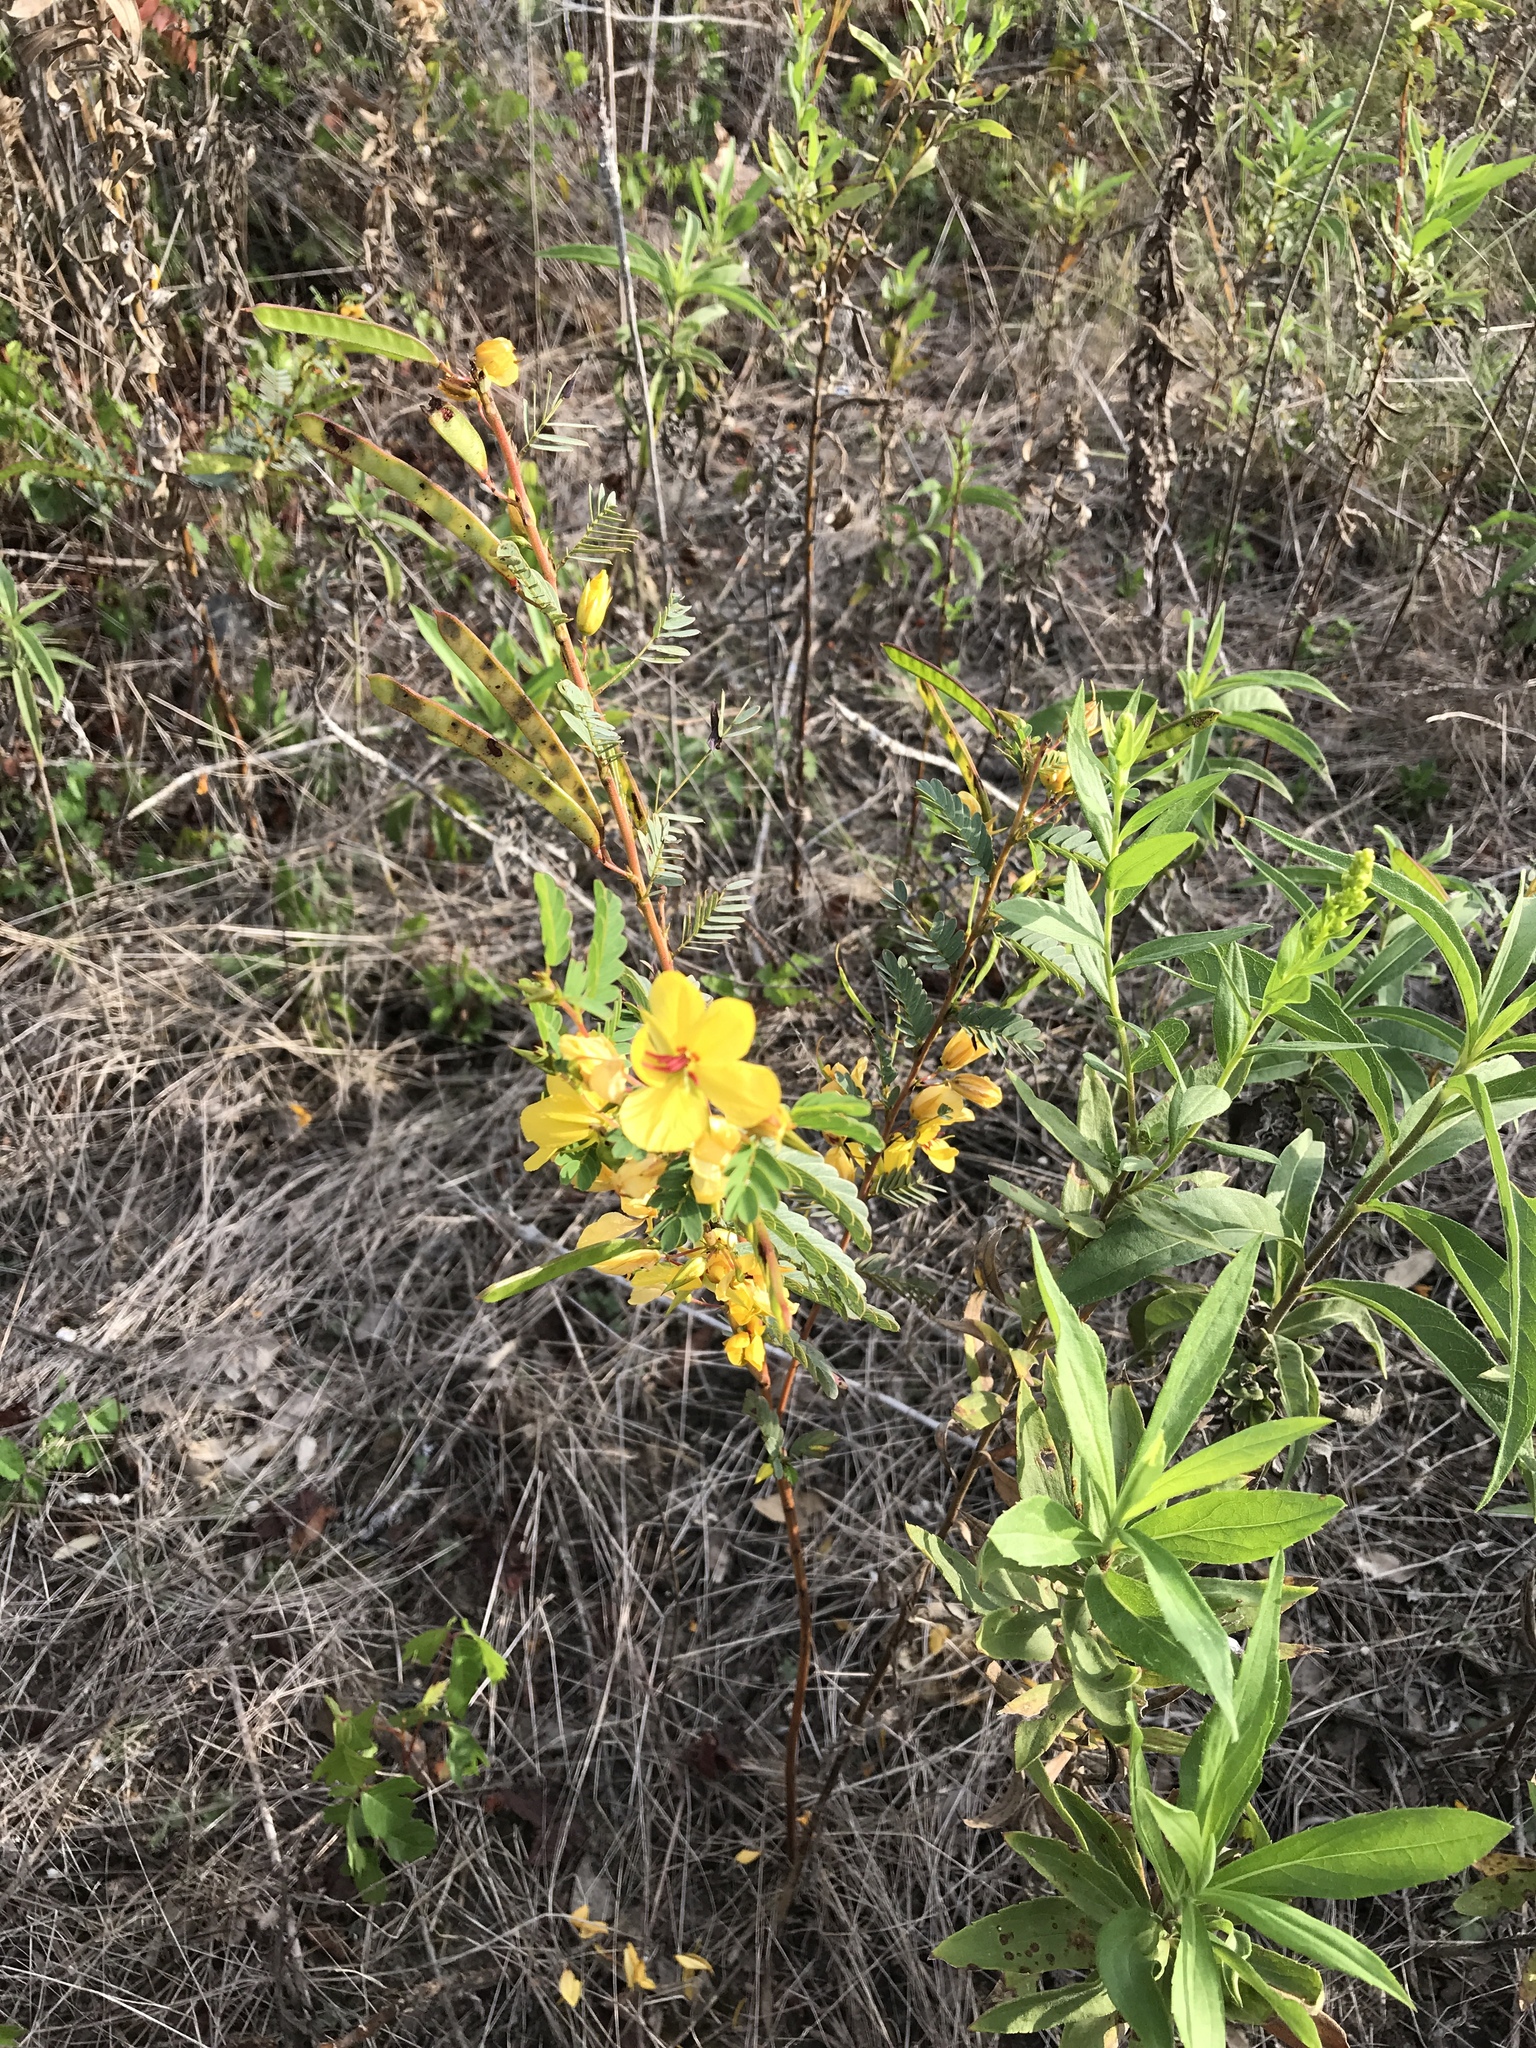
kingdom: Plantae
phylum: Tracheophyta
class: Magnoliopsida
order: Fabales
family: Fabaceae
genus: Chamaecrista
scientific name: Chamaecrista fasciculata
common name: Golden cassia
